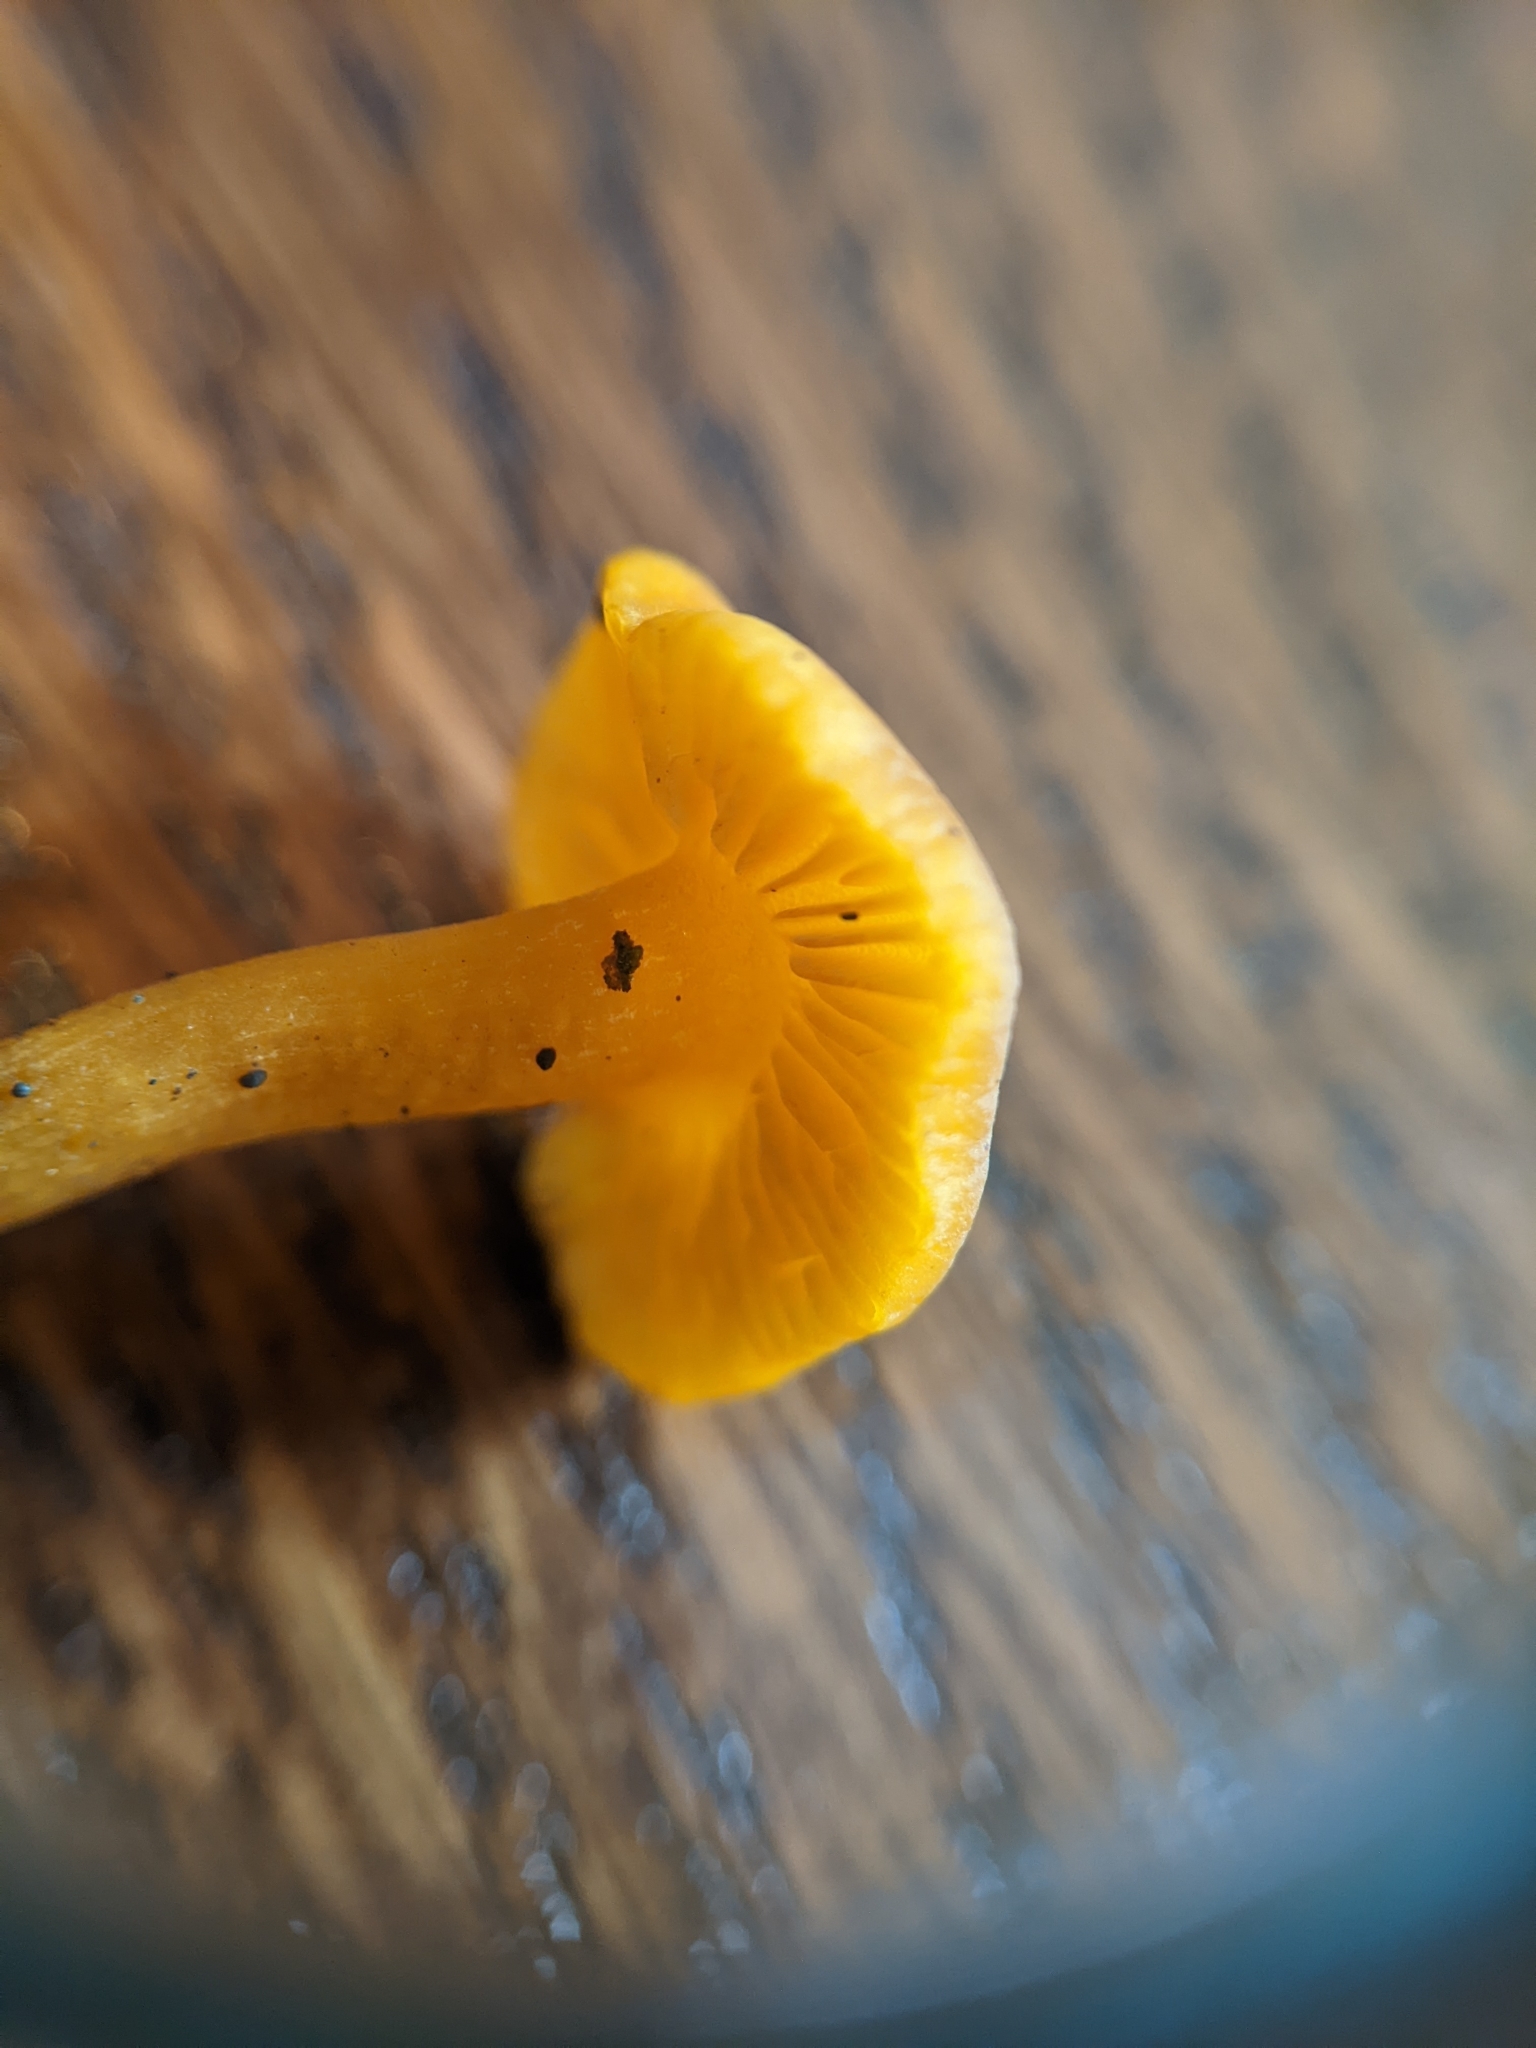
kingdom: Fungi
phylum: Basidiomycota
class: Agaricomycetes
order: Agaricales
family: Lyophyllaceae
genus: Calocybe
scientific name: Calocybe naucoria
